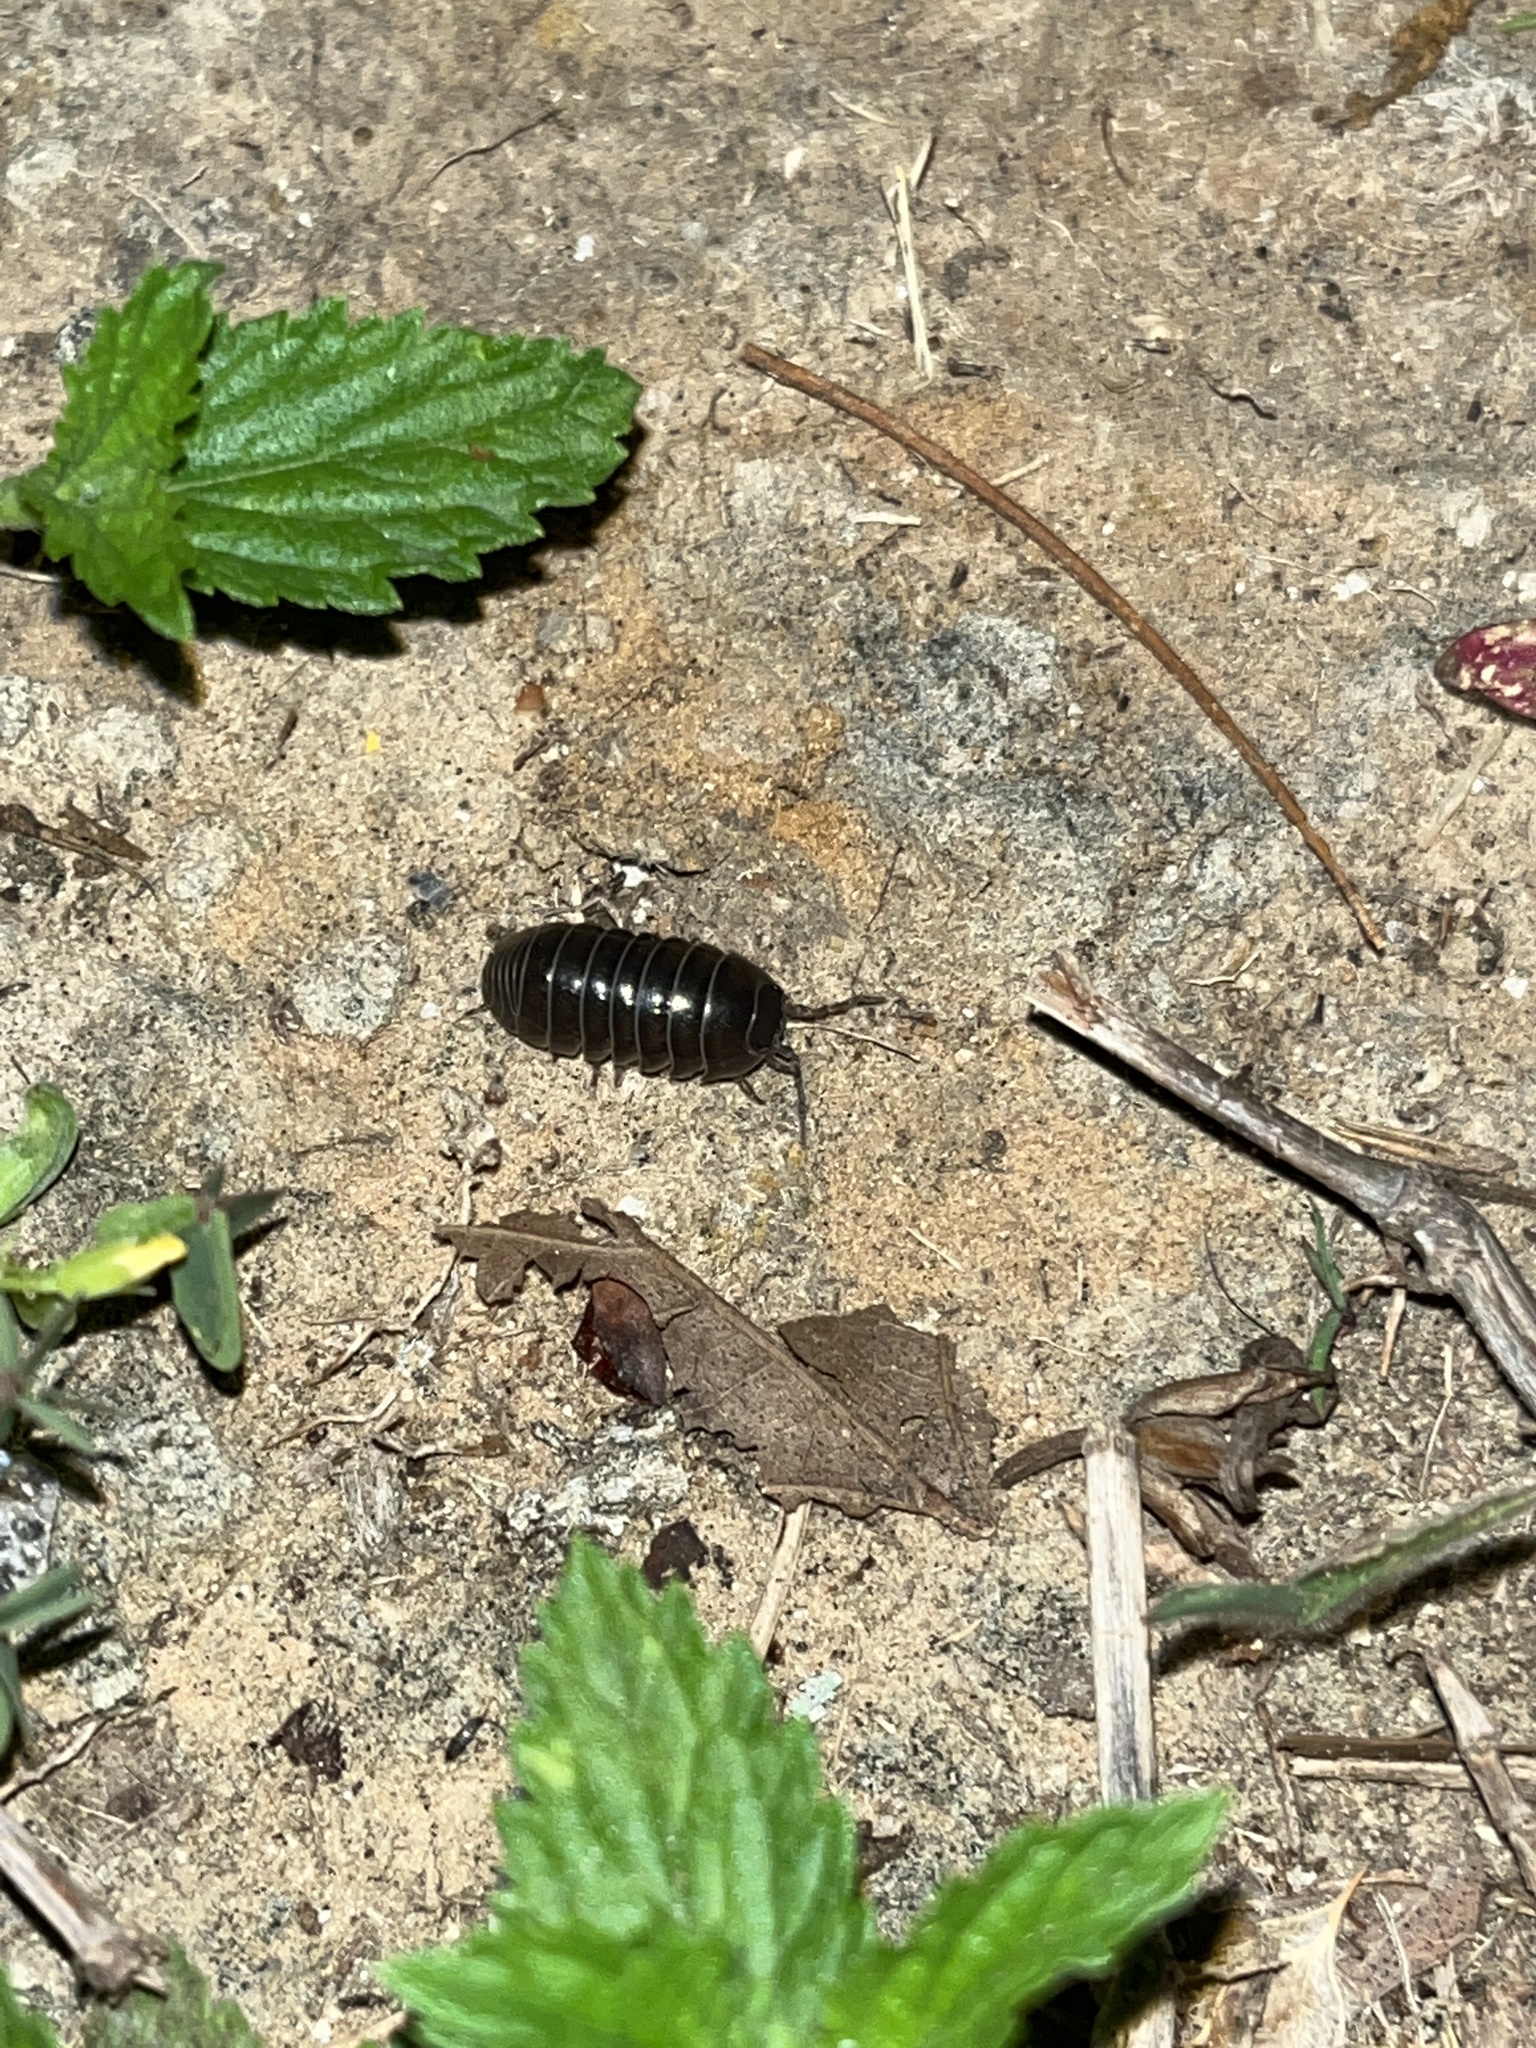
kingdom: Animalia
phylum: Arthropoda
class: Malacostraca
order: Isopoda
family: Armadillidiidae
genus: Armadillidium
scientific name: Armadillidium vulgare
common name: Common pill woodlouse
